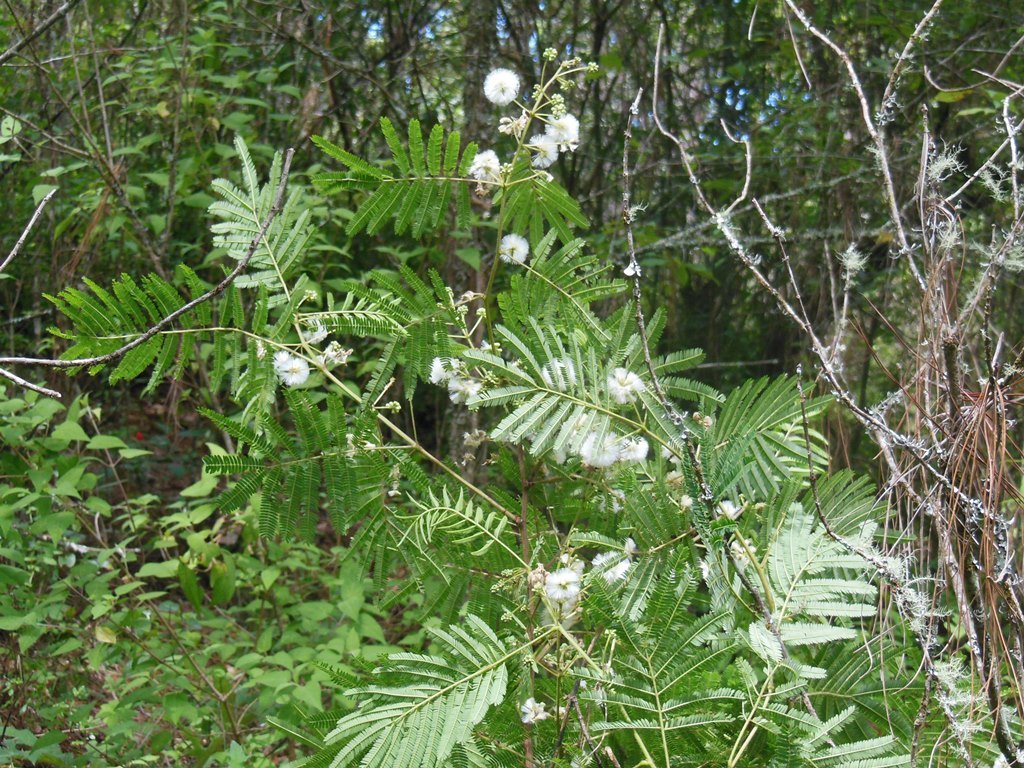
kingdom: Plantae
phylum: Tracheophyta
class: Magnoliopsida
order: Fabales
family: Fabaceae
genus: Acaciella
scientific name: Acaciella angustissima
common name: Prairie acacia
